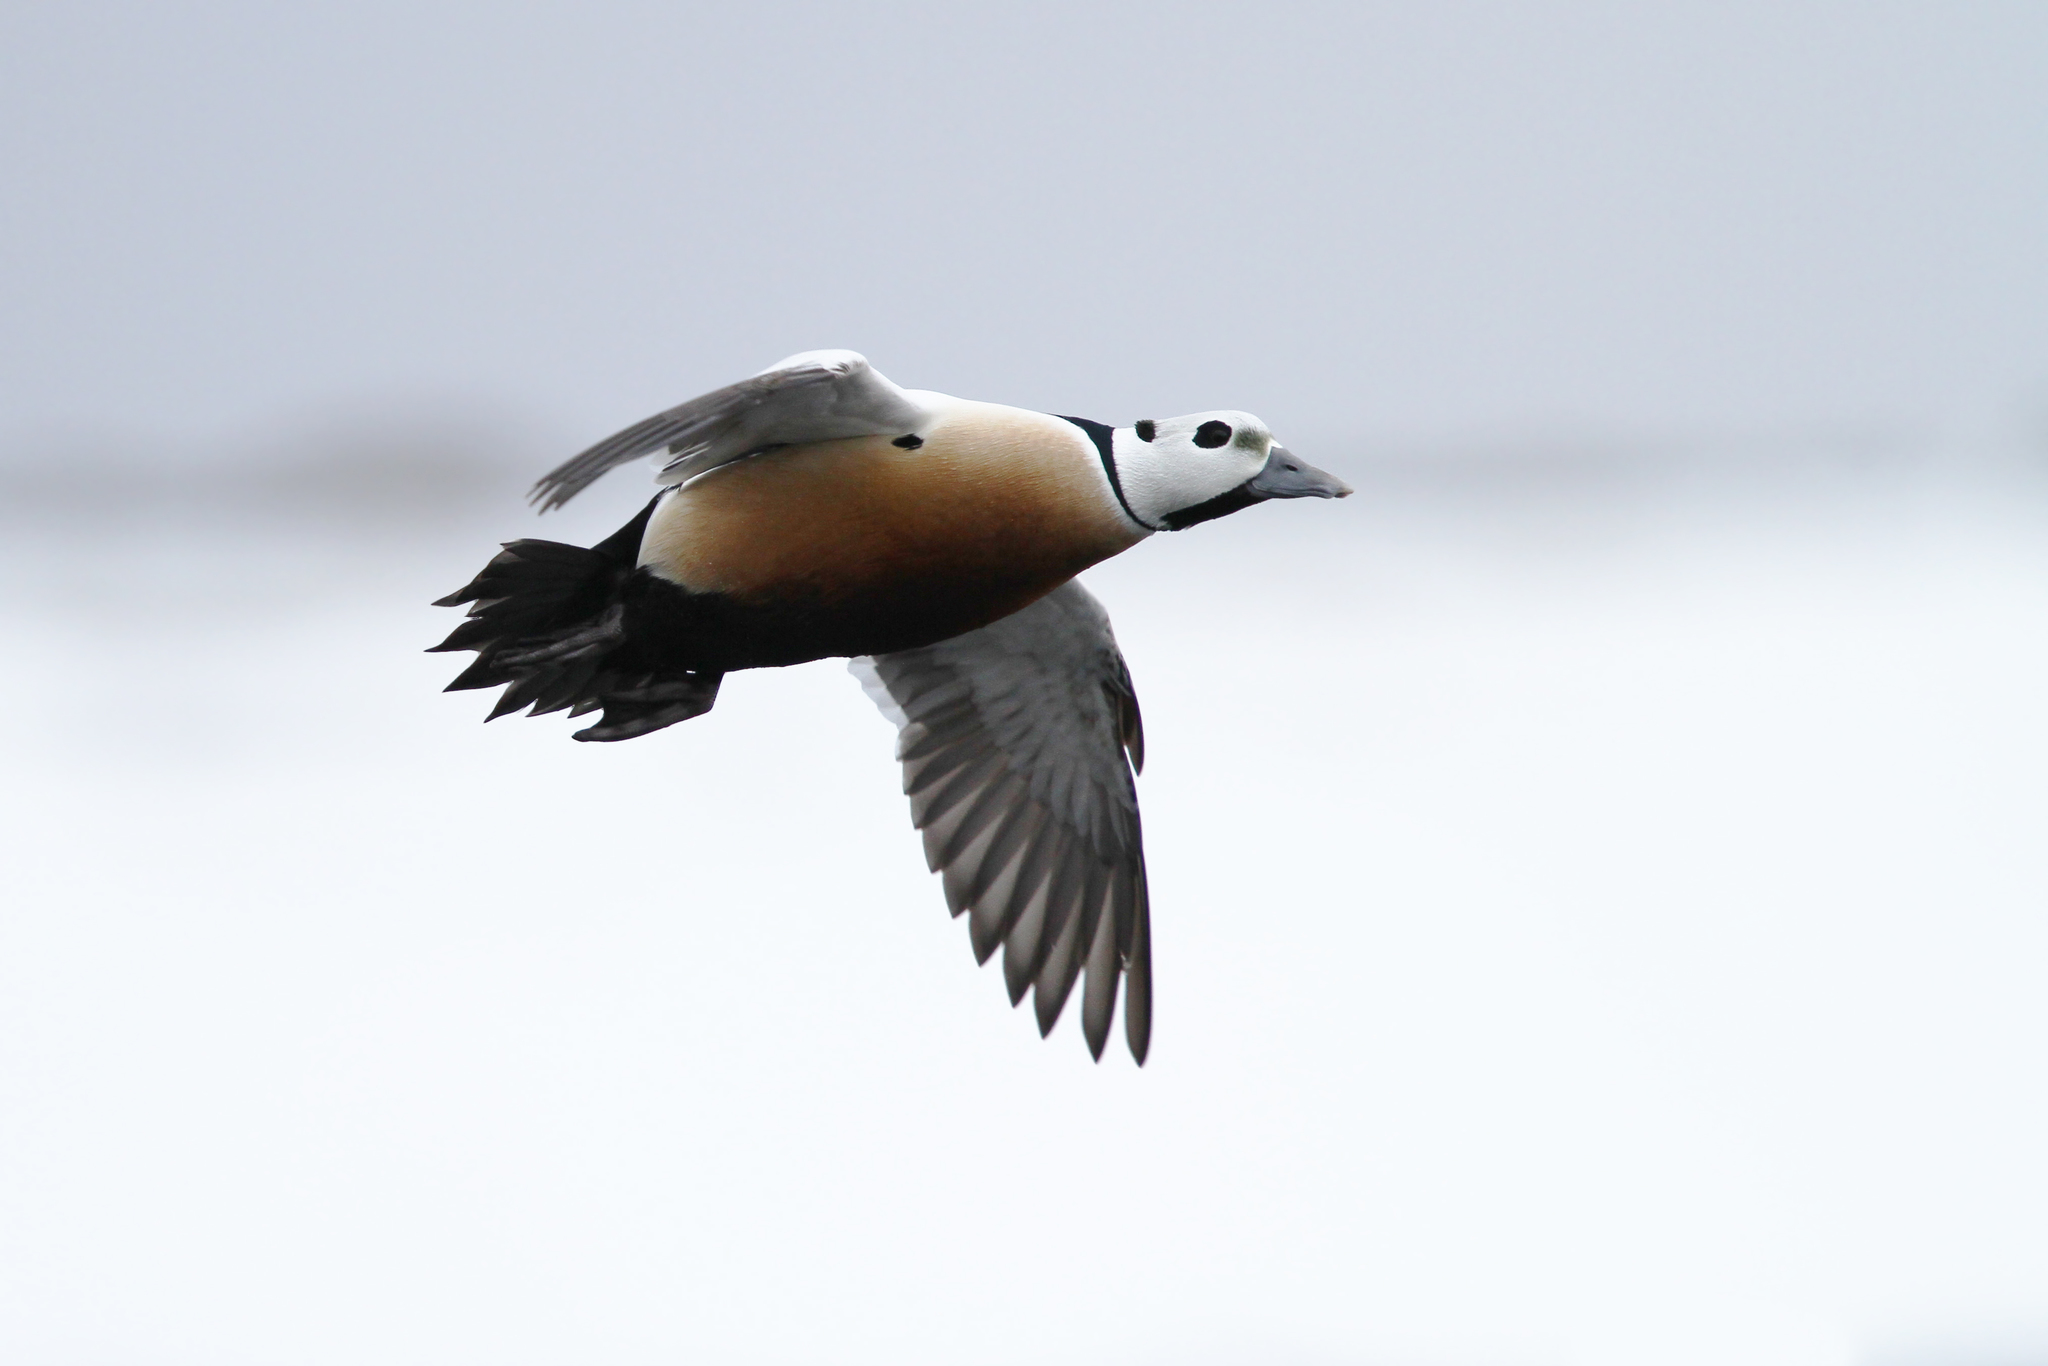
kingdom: Animalia
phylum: Chordata
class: Aves
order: Anseriformes
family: Anatidae
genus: Polysticta
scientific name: Polysticta stelleri
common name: Steller's eider
